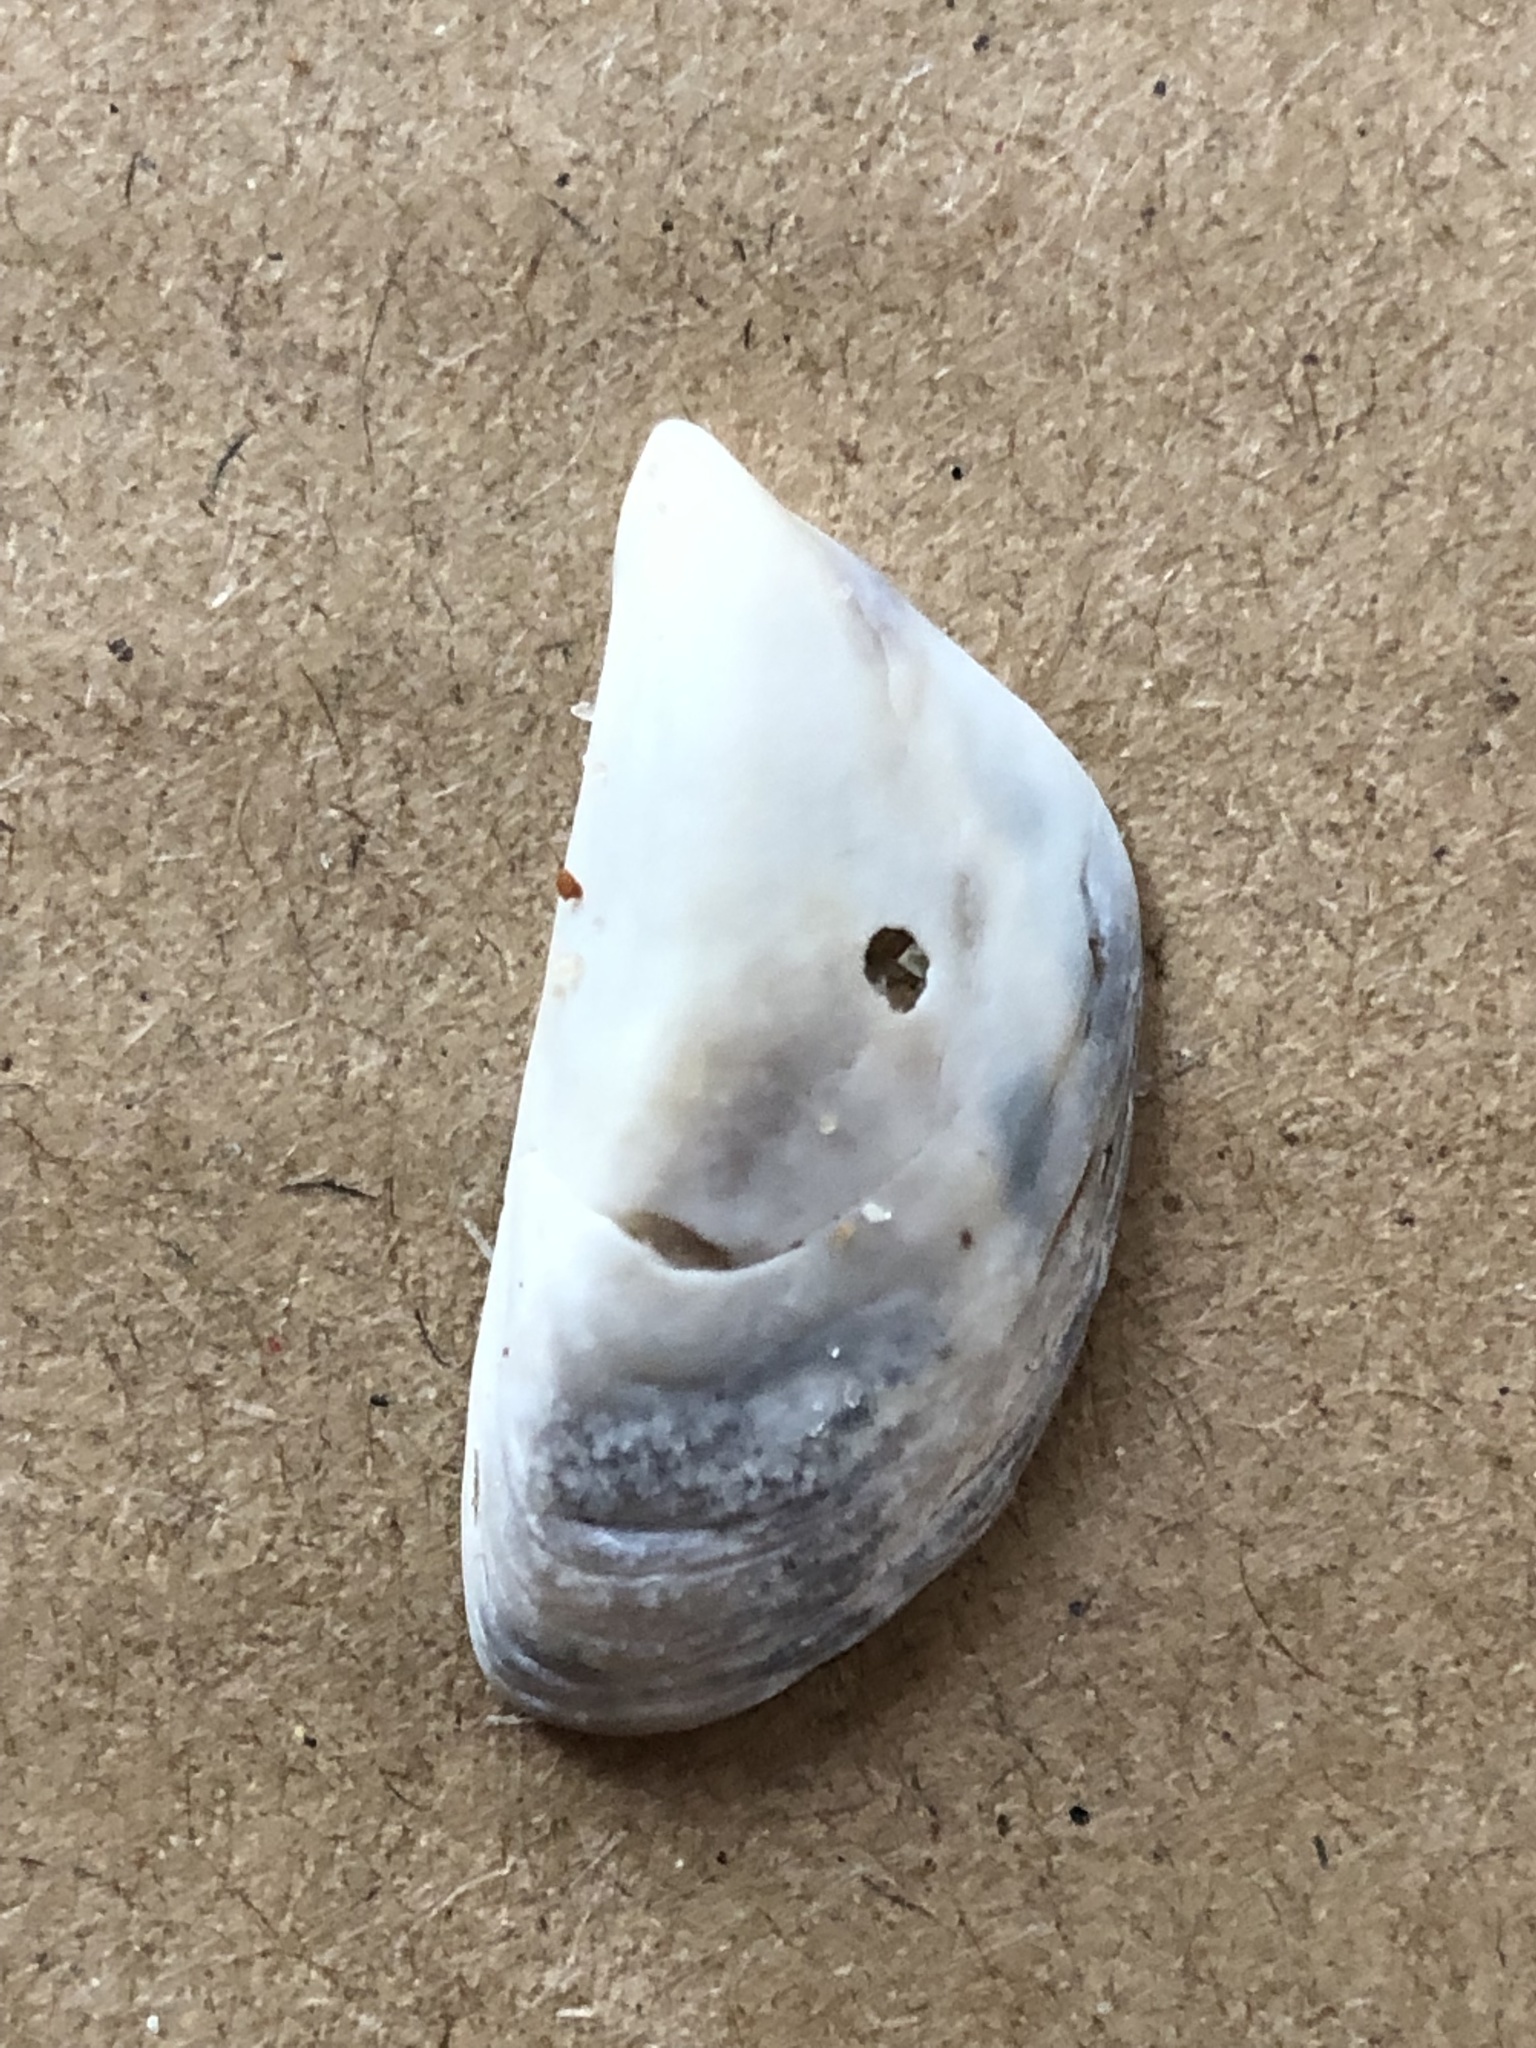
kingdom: Animalia
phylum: Mollusca
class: Bivalvia
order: Myida
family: Dreissenidae
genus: Dreissena
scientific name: Dreissena polymorpha
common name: Zebra mussel
